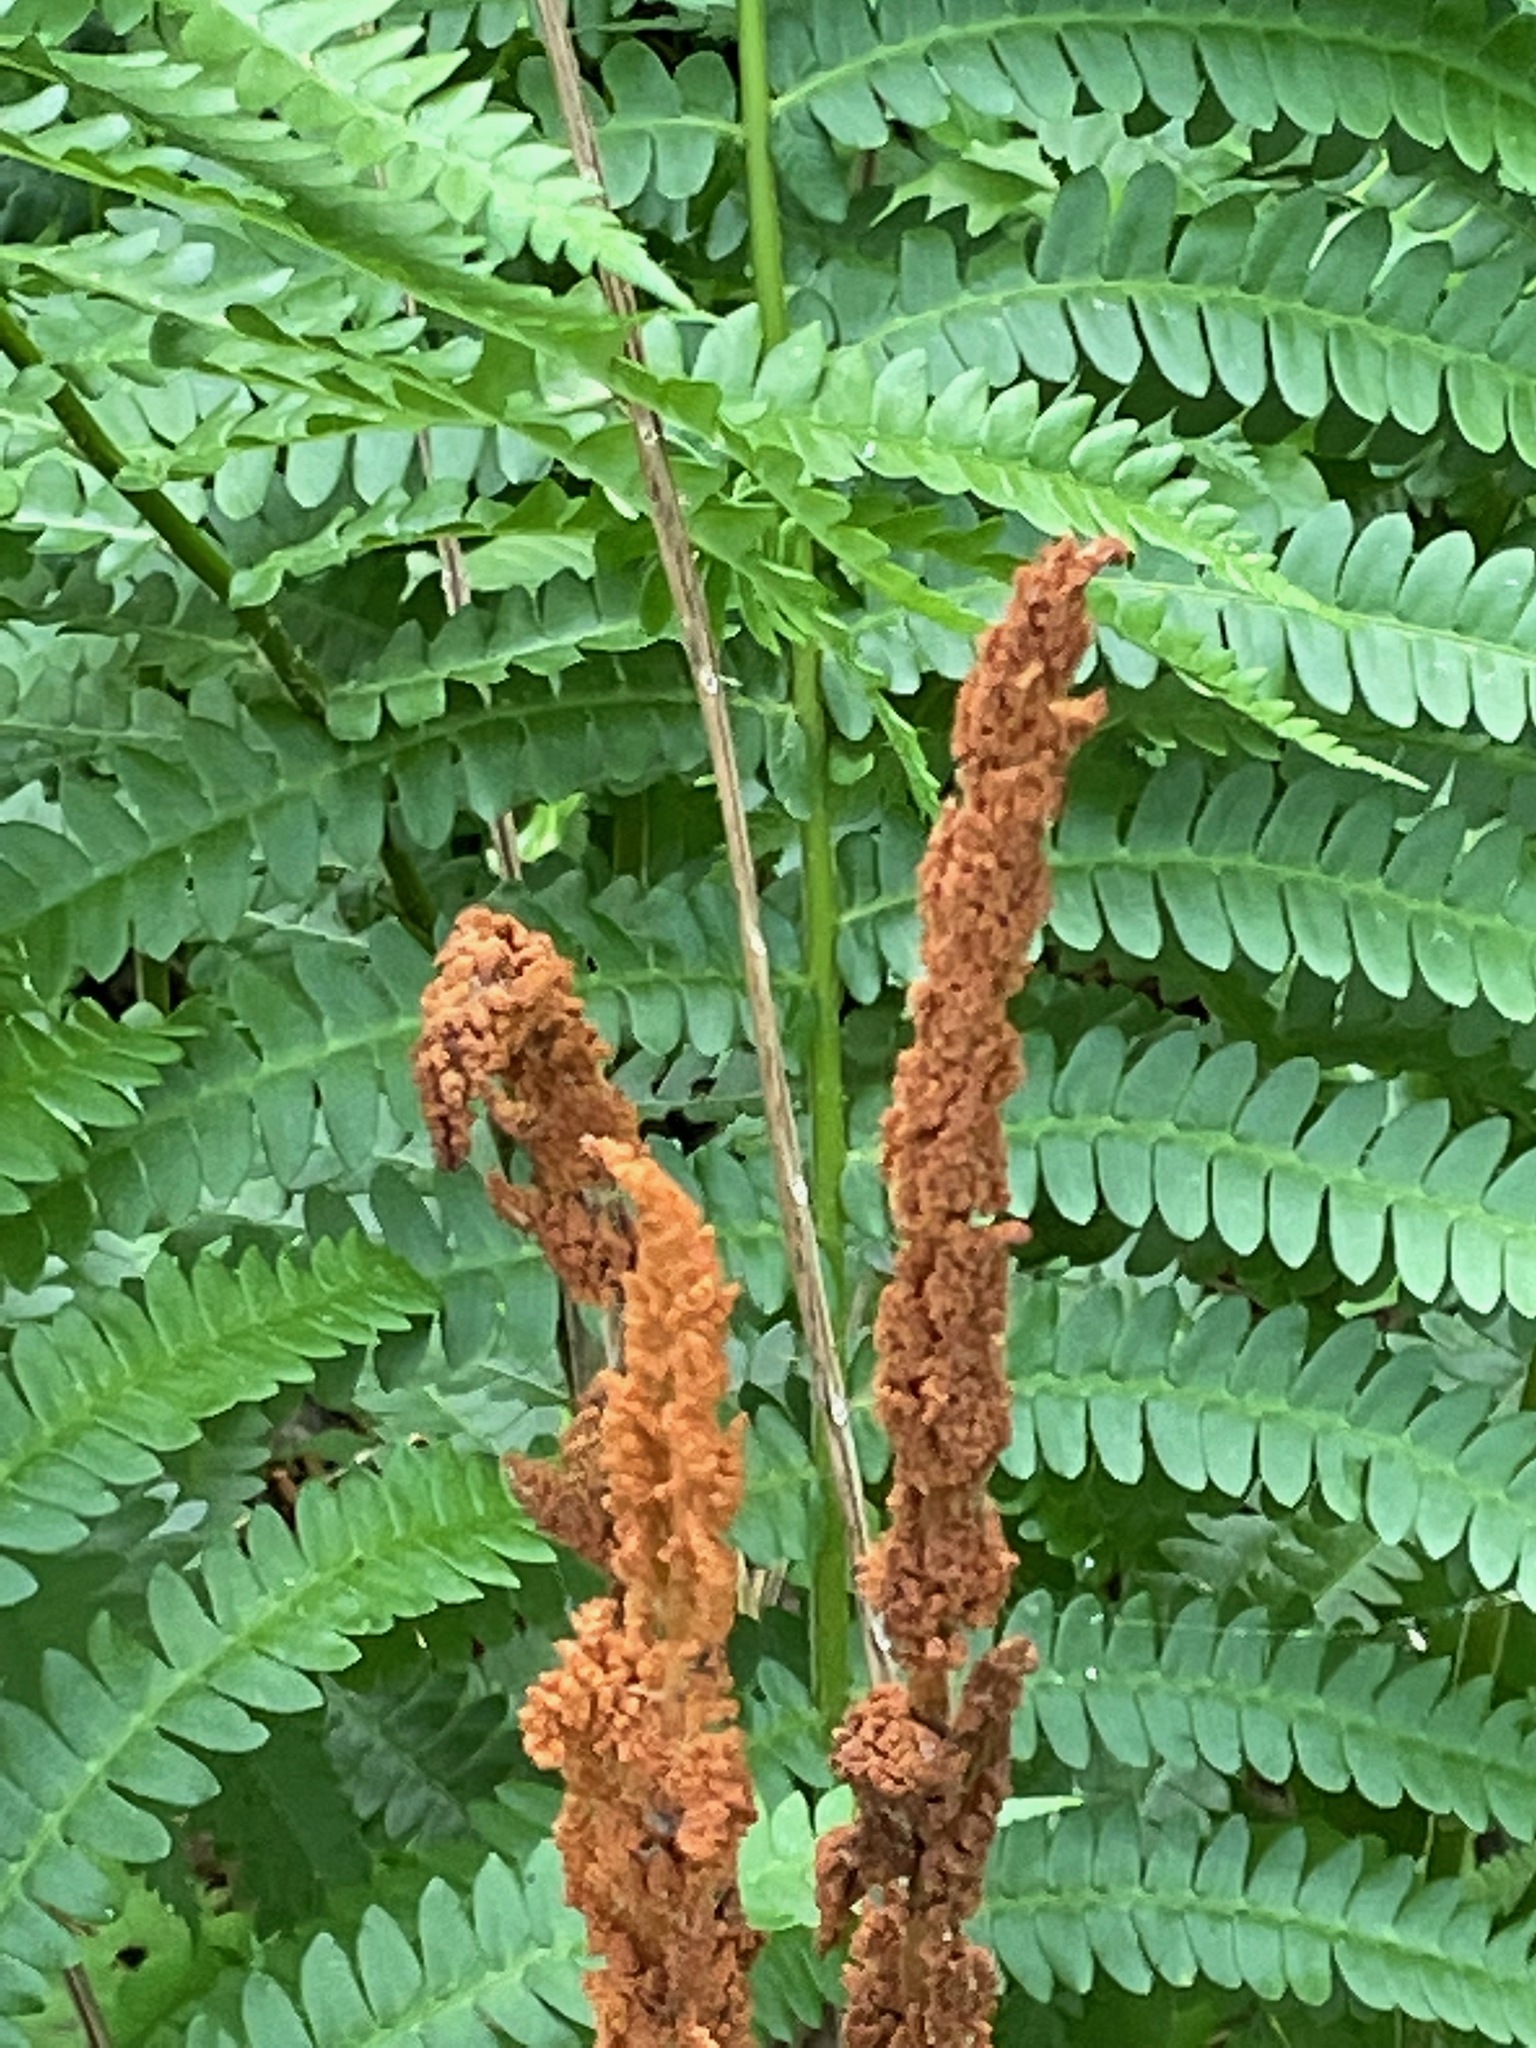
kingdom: Plantae
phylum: Tracheophyta
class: Polypodiopsida
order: Osmundales
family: Osmundaceae
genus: Osmundastrum
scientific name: Osmundastrum cinnamomeum
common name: Cinnamon fern
